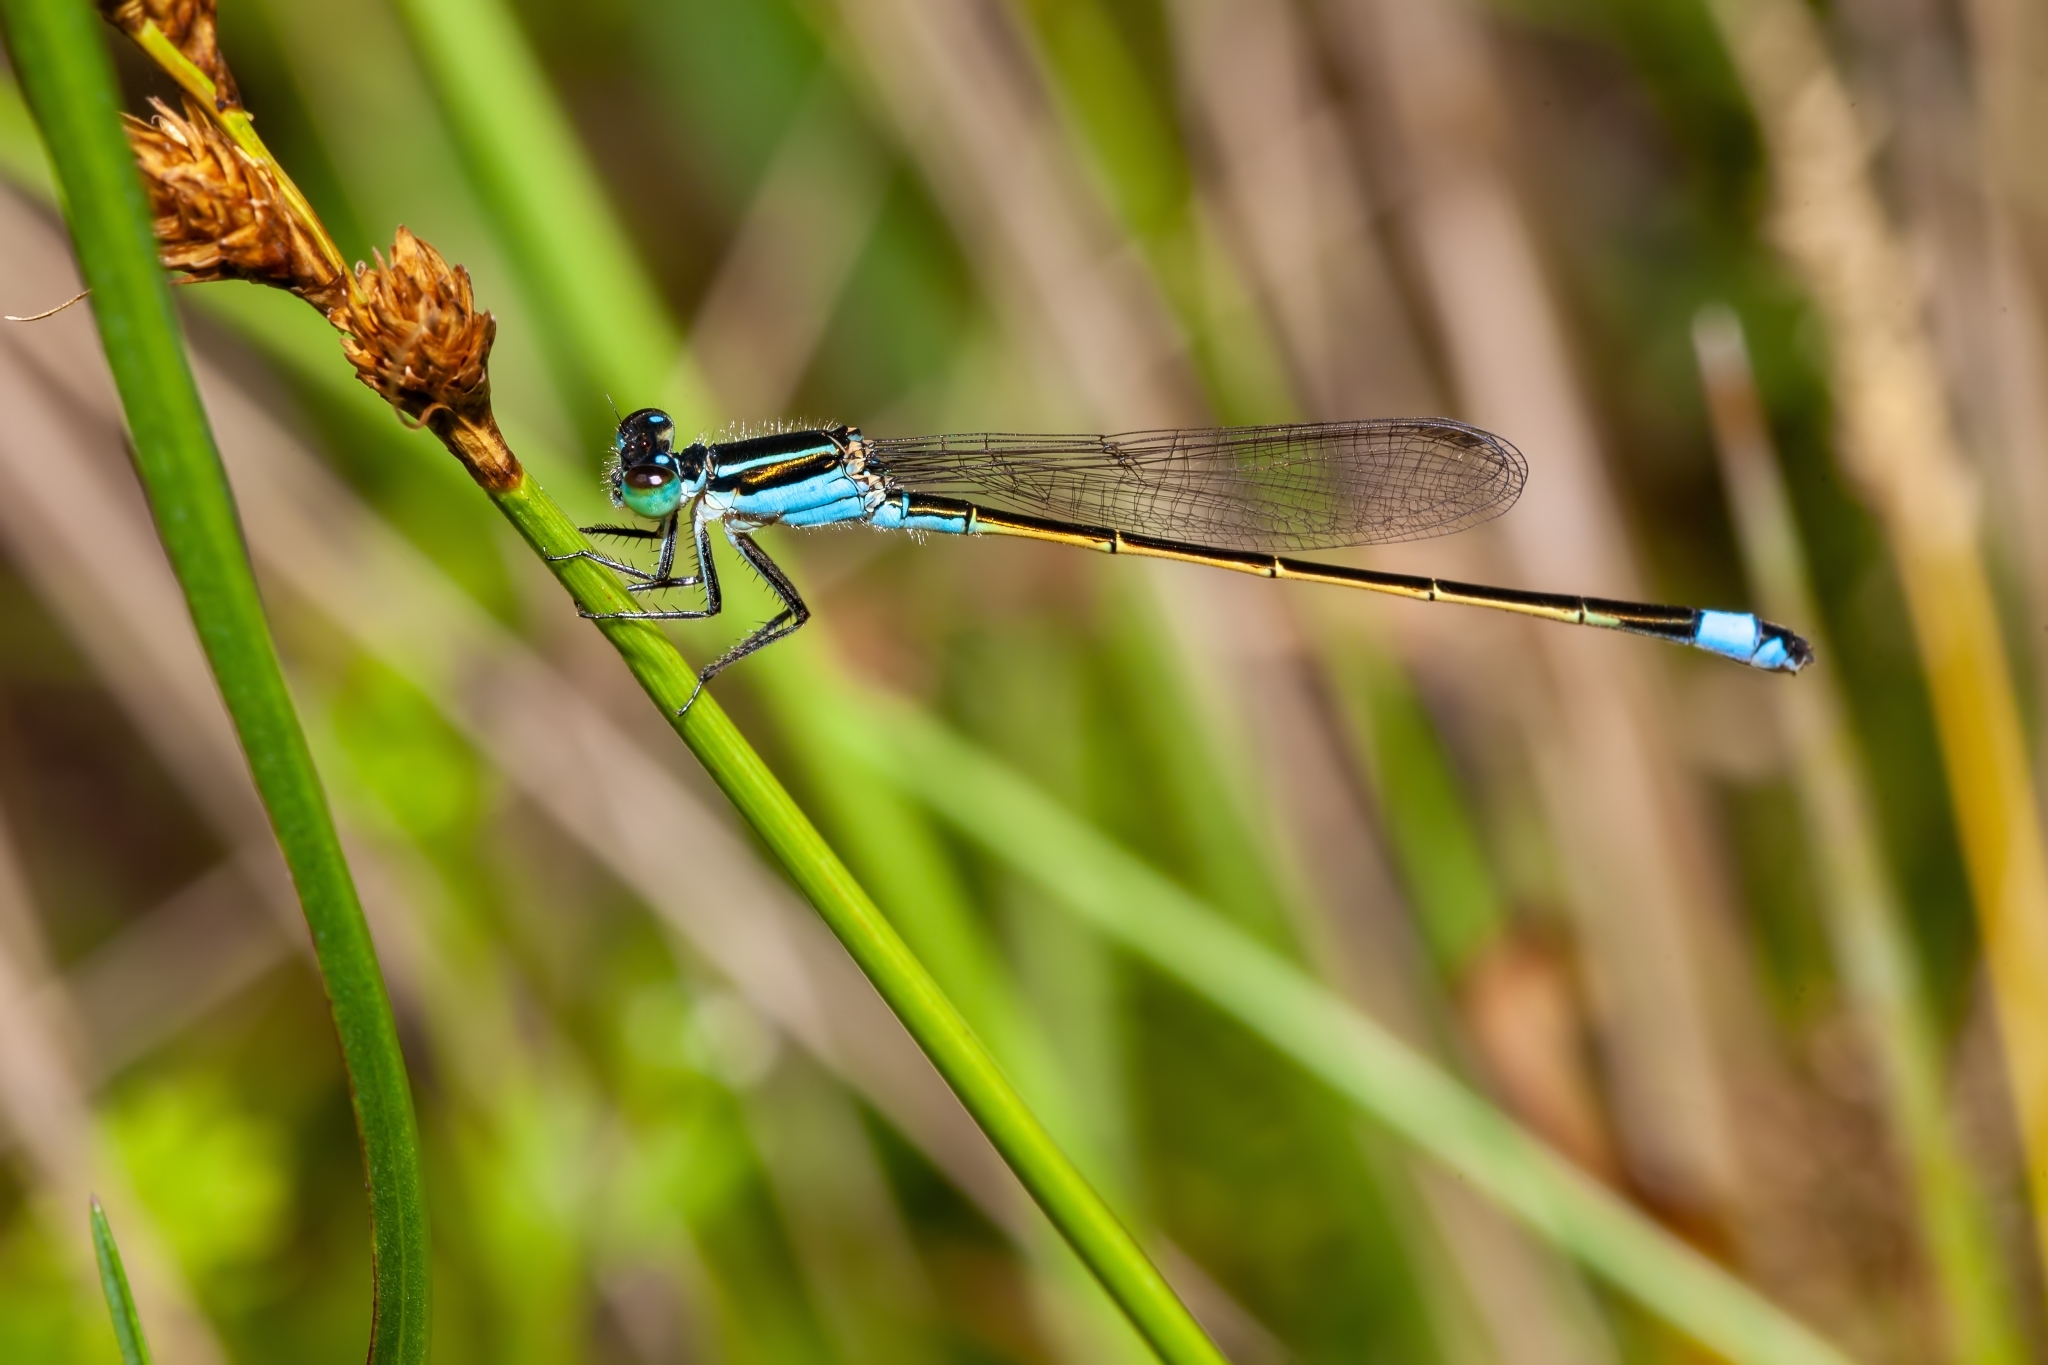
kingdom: Animalia
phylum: Arthropoda
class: Insecta
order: Odonata
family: Coenagrionidae
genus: Ischnura
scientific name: Ischnura ramburii
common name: Rambur's forktail
